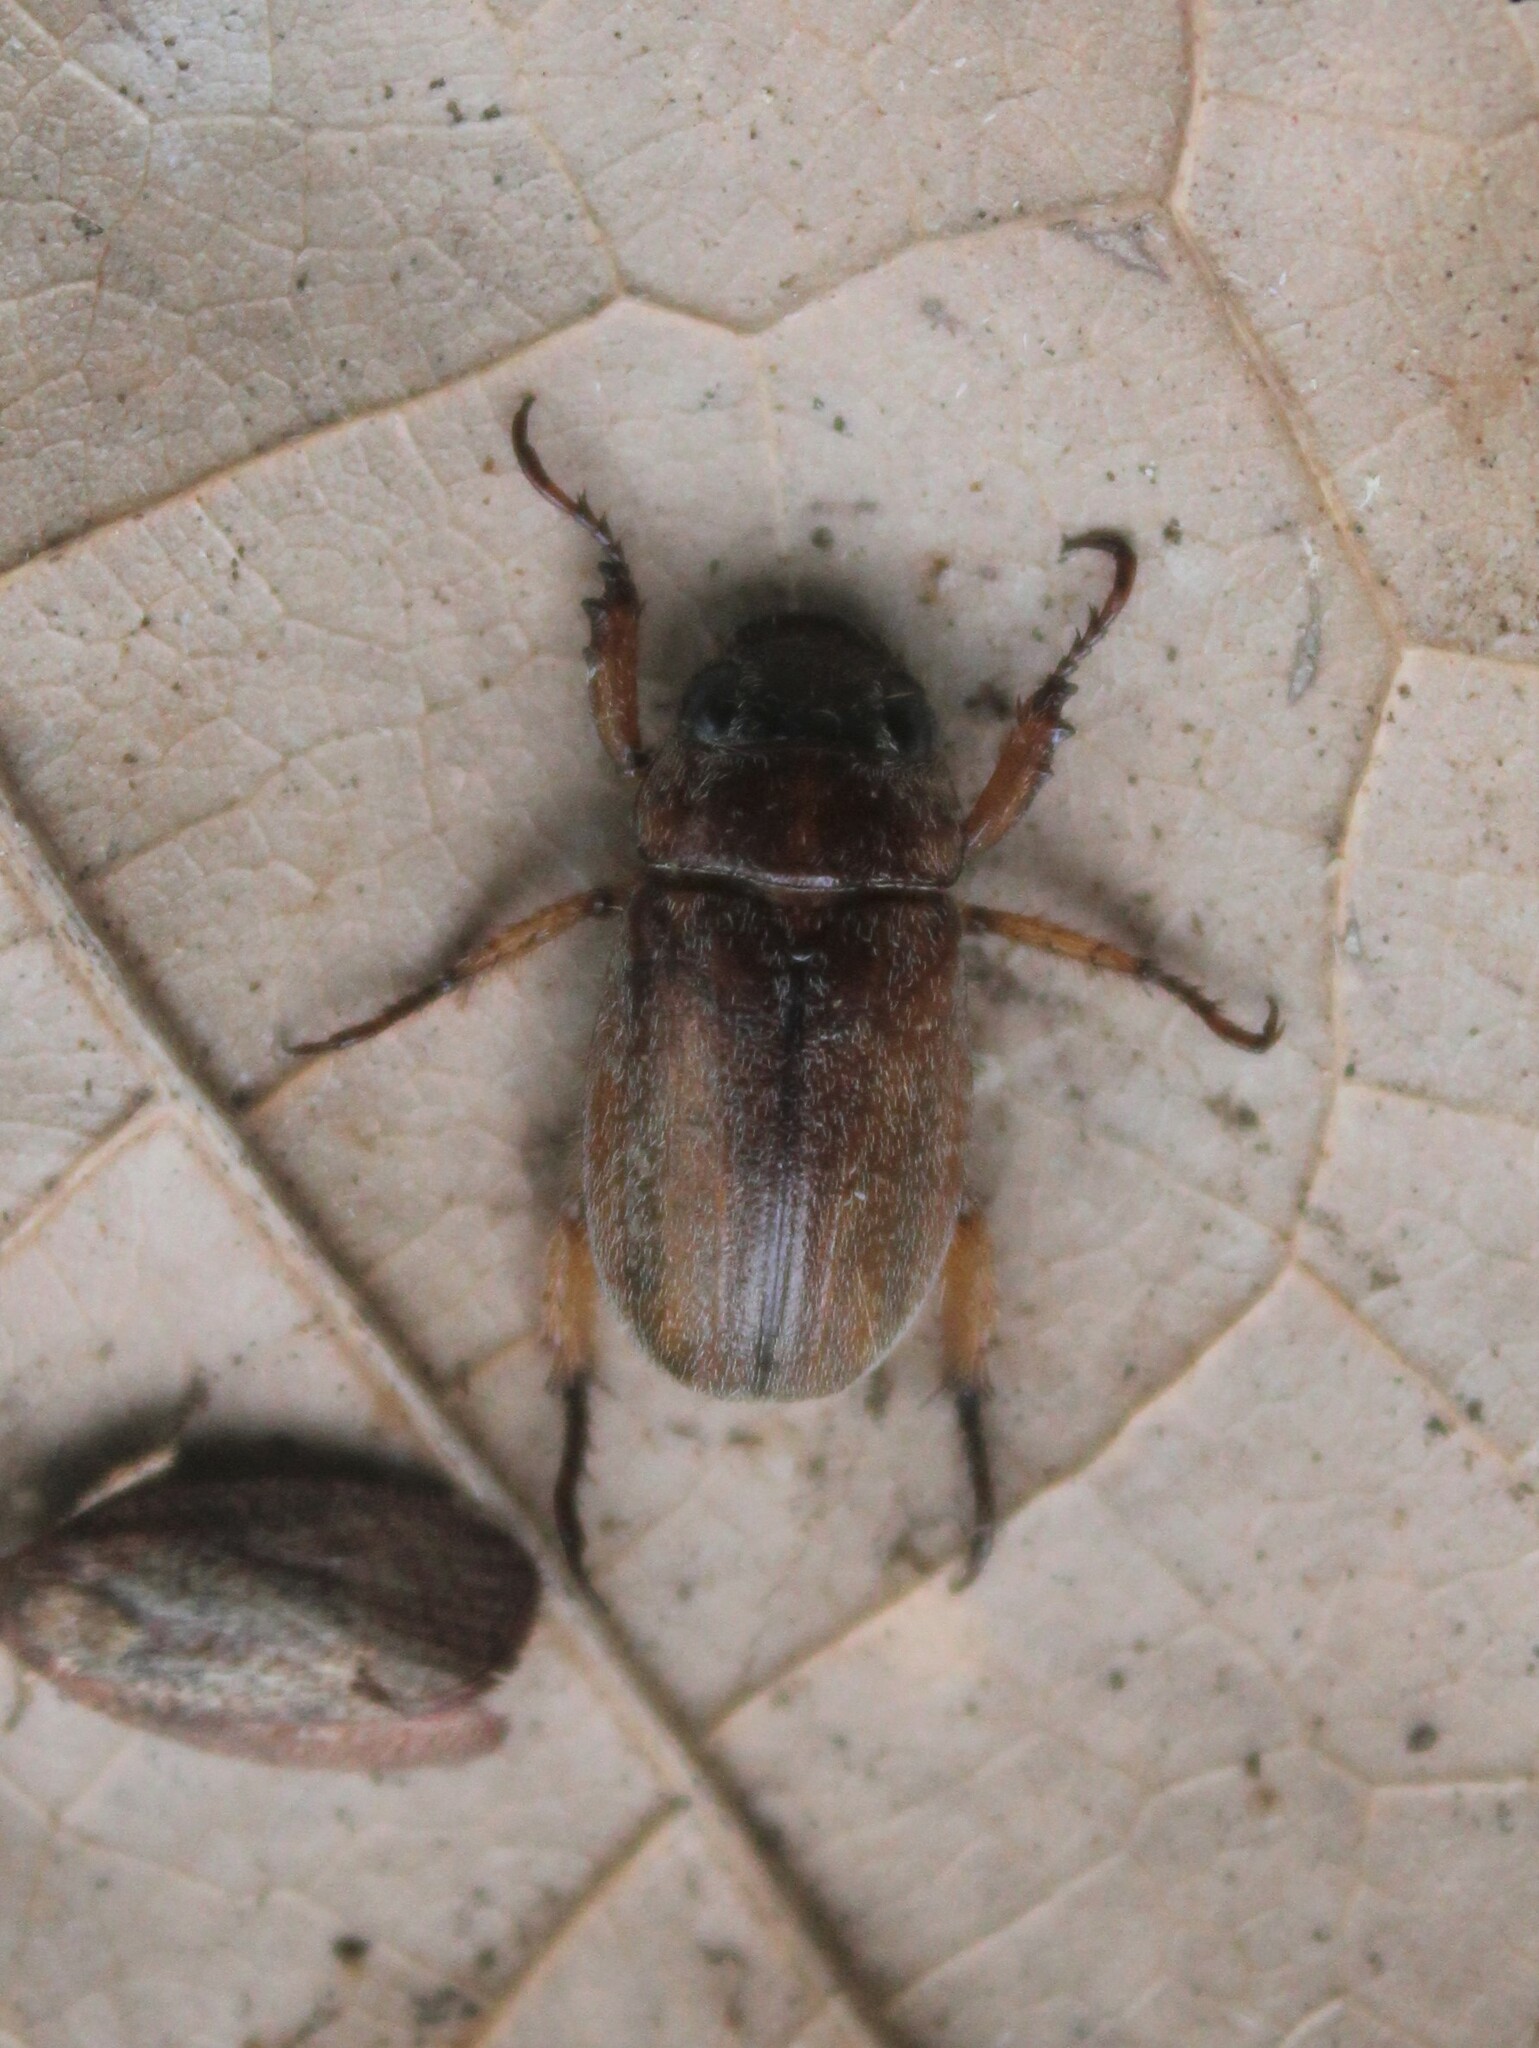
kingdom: Animalia
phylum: Arthropoda
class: Insecta
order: Coleoptera
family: Scarabaeidae
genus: Adoretus
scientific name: Adoretus sinicus
